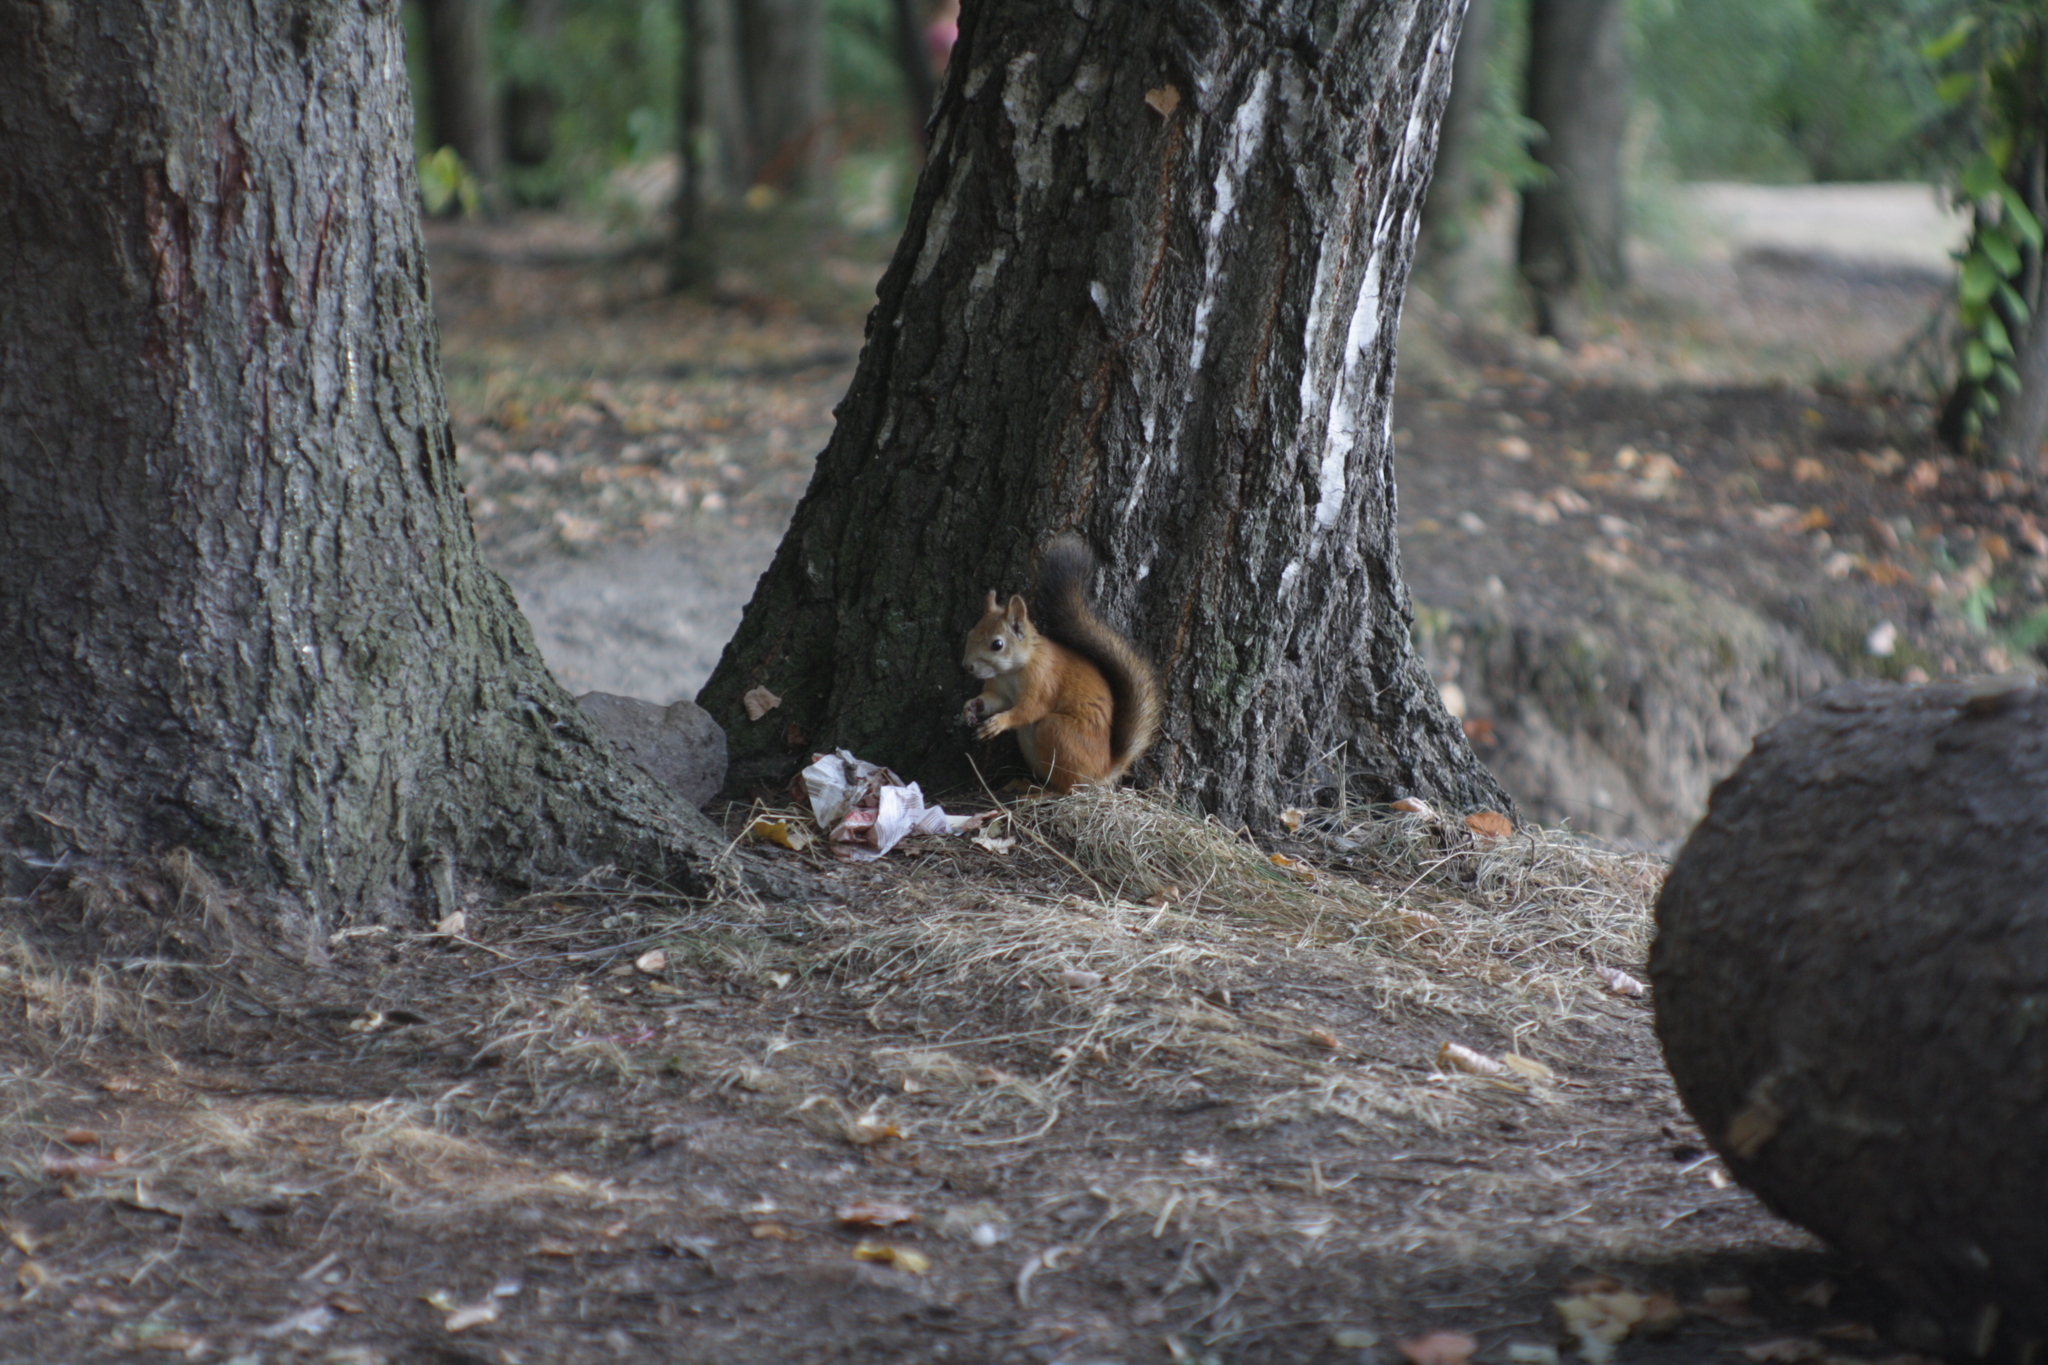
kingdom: Animalia
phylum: Chordata
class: Mammalia
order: Rodentia
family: Sciuridae
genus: Sciurus
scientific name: Sciurus vulgaris
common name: Eurasian red squirrel
